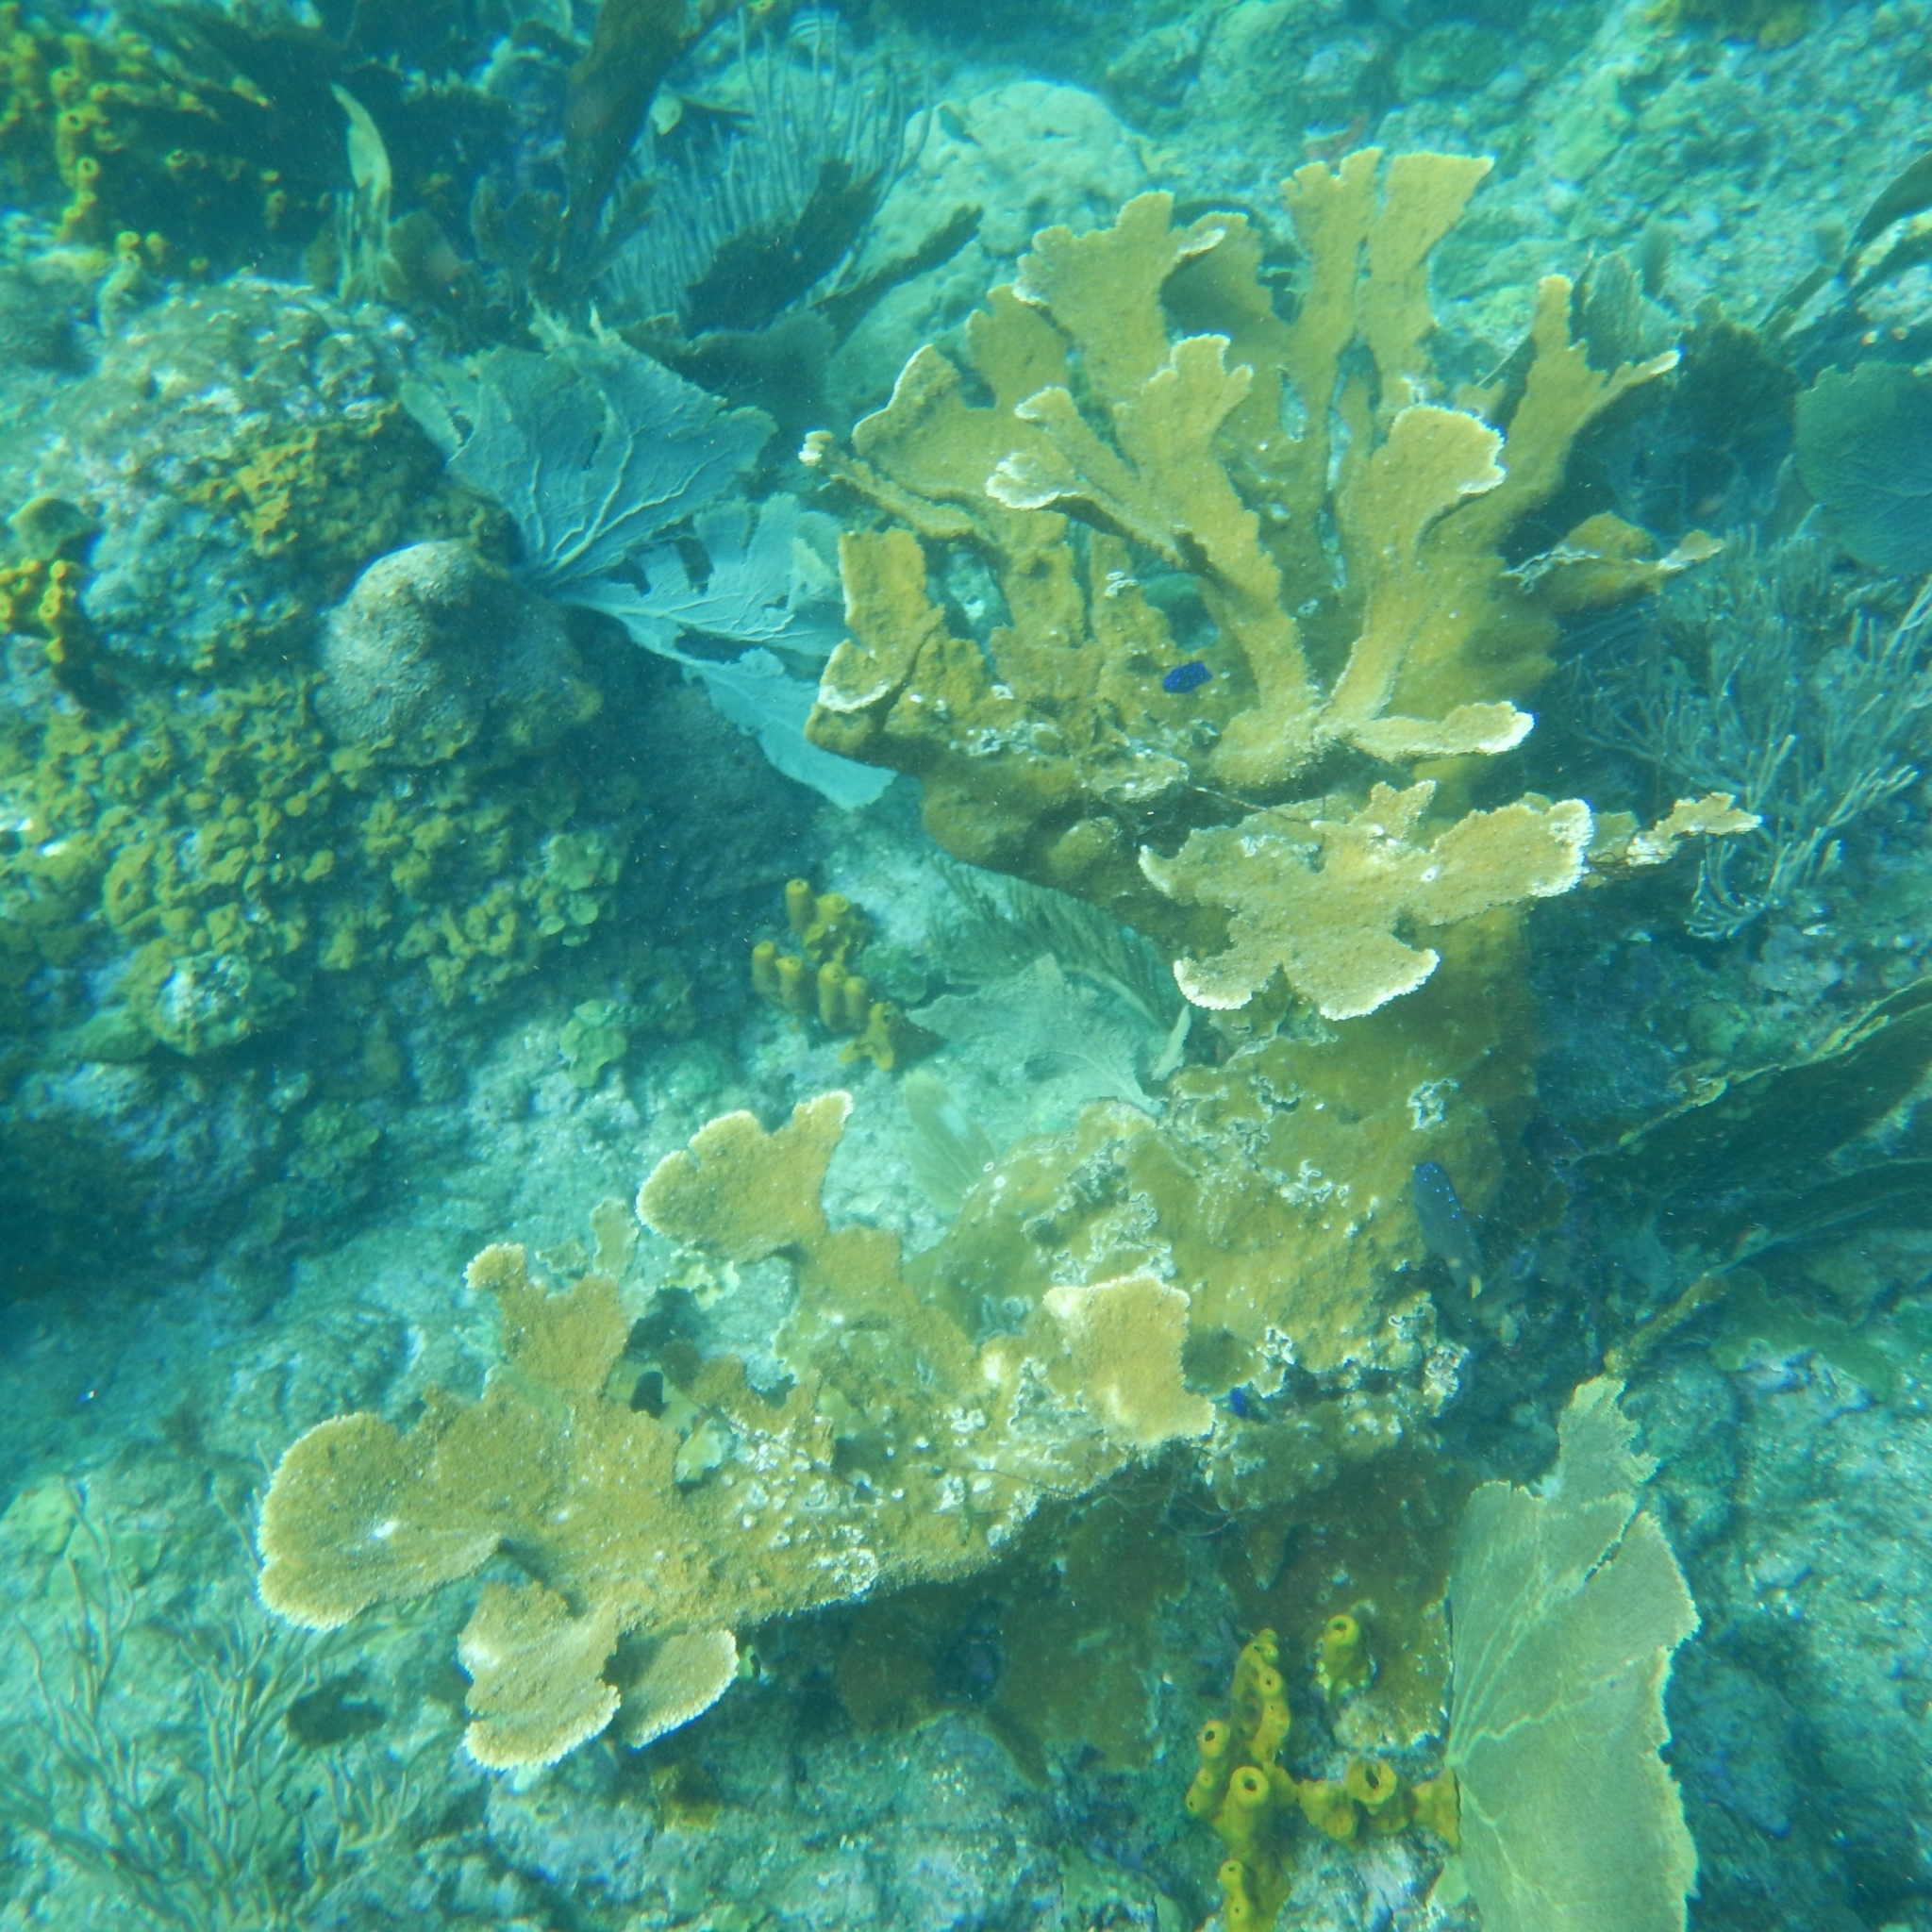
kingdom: Animalia
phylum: Cnidaria
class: Anthozoa
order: Scleractinia
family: Acroporidae
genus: Acropora
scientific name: Acropora palmata
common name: Elkhorn coral
